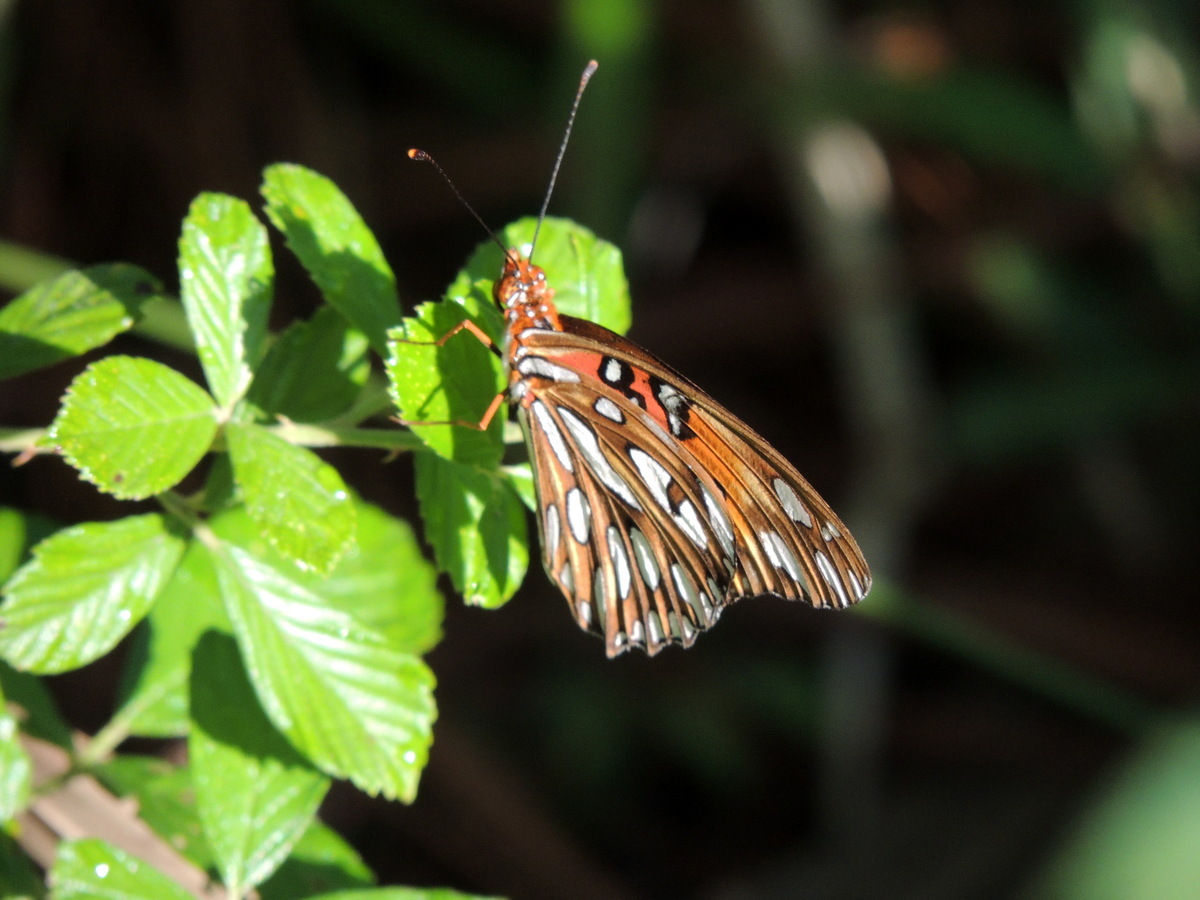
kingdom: Animalia
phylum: Arthropoda
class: Insecta
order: Lepidoptera
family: Nymphalidae
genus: Dione
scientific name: Dione vanillae
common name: Gulf fritillary
